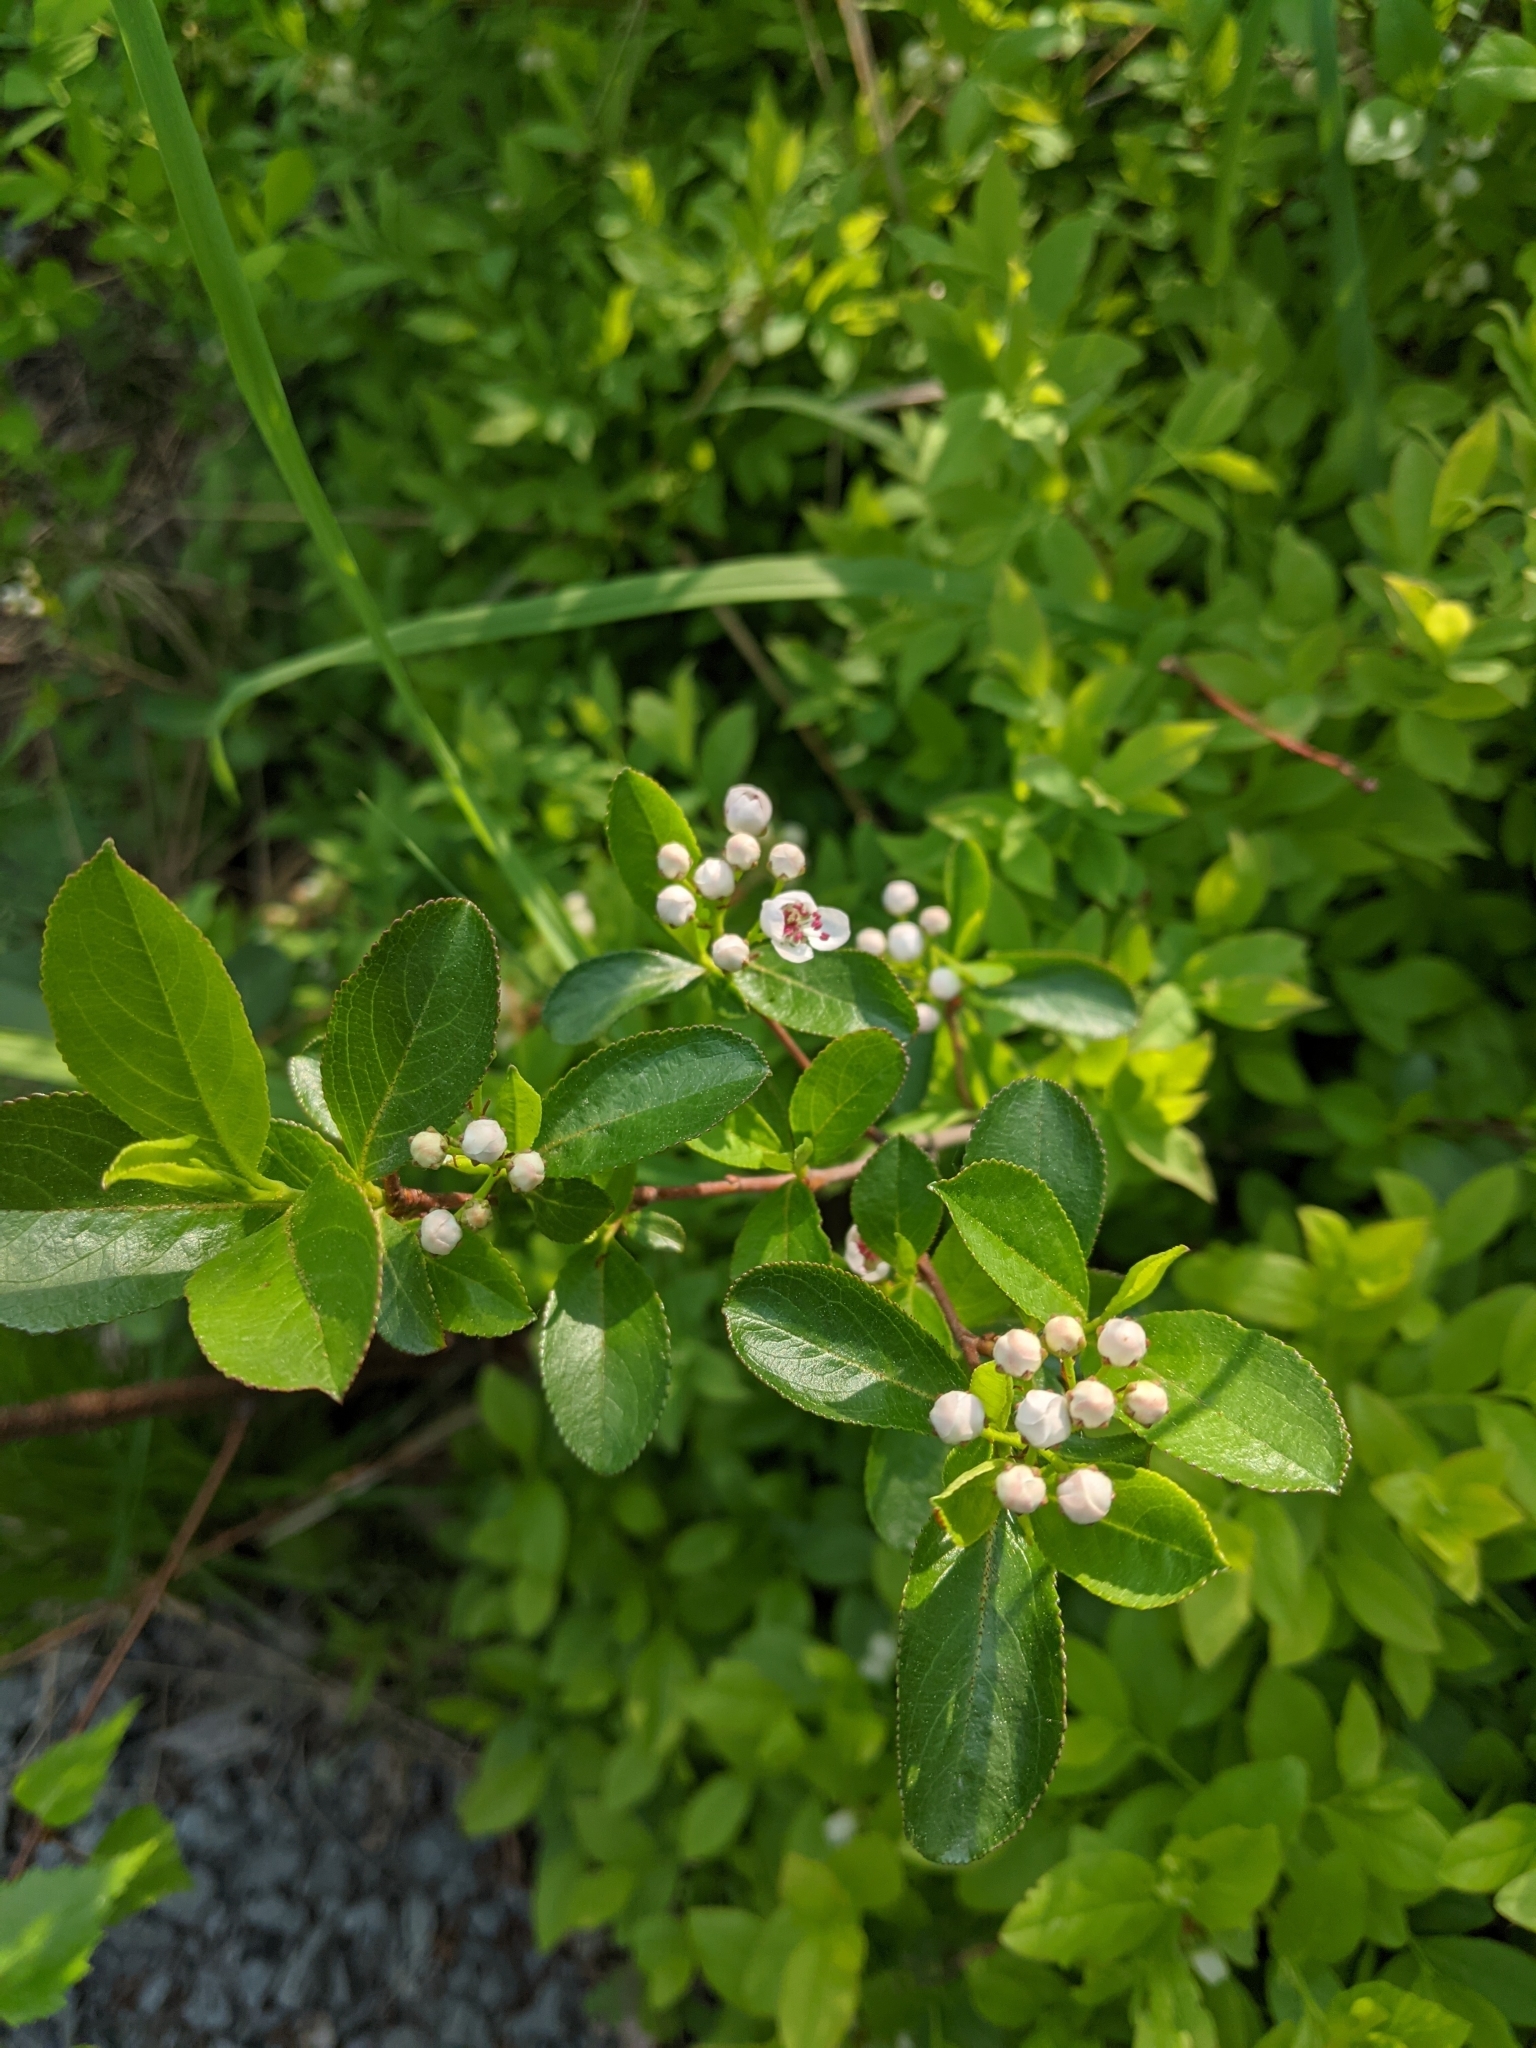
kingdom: Plantae
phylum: Tracheophyta
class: Magnoliopsida
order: Rosales
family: Rosaceae
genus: Aronia
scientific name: Aronia melanocarpa
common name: Black chokeberry
